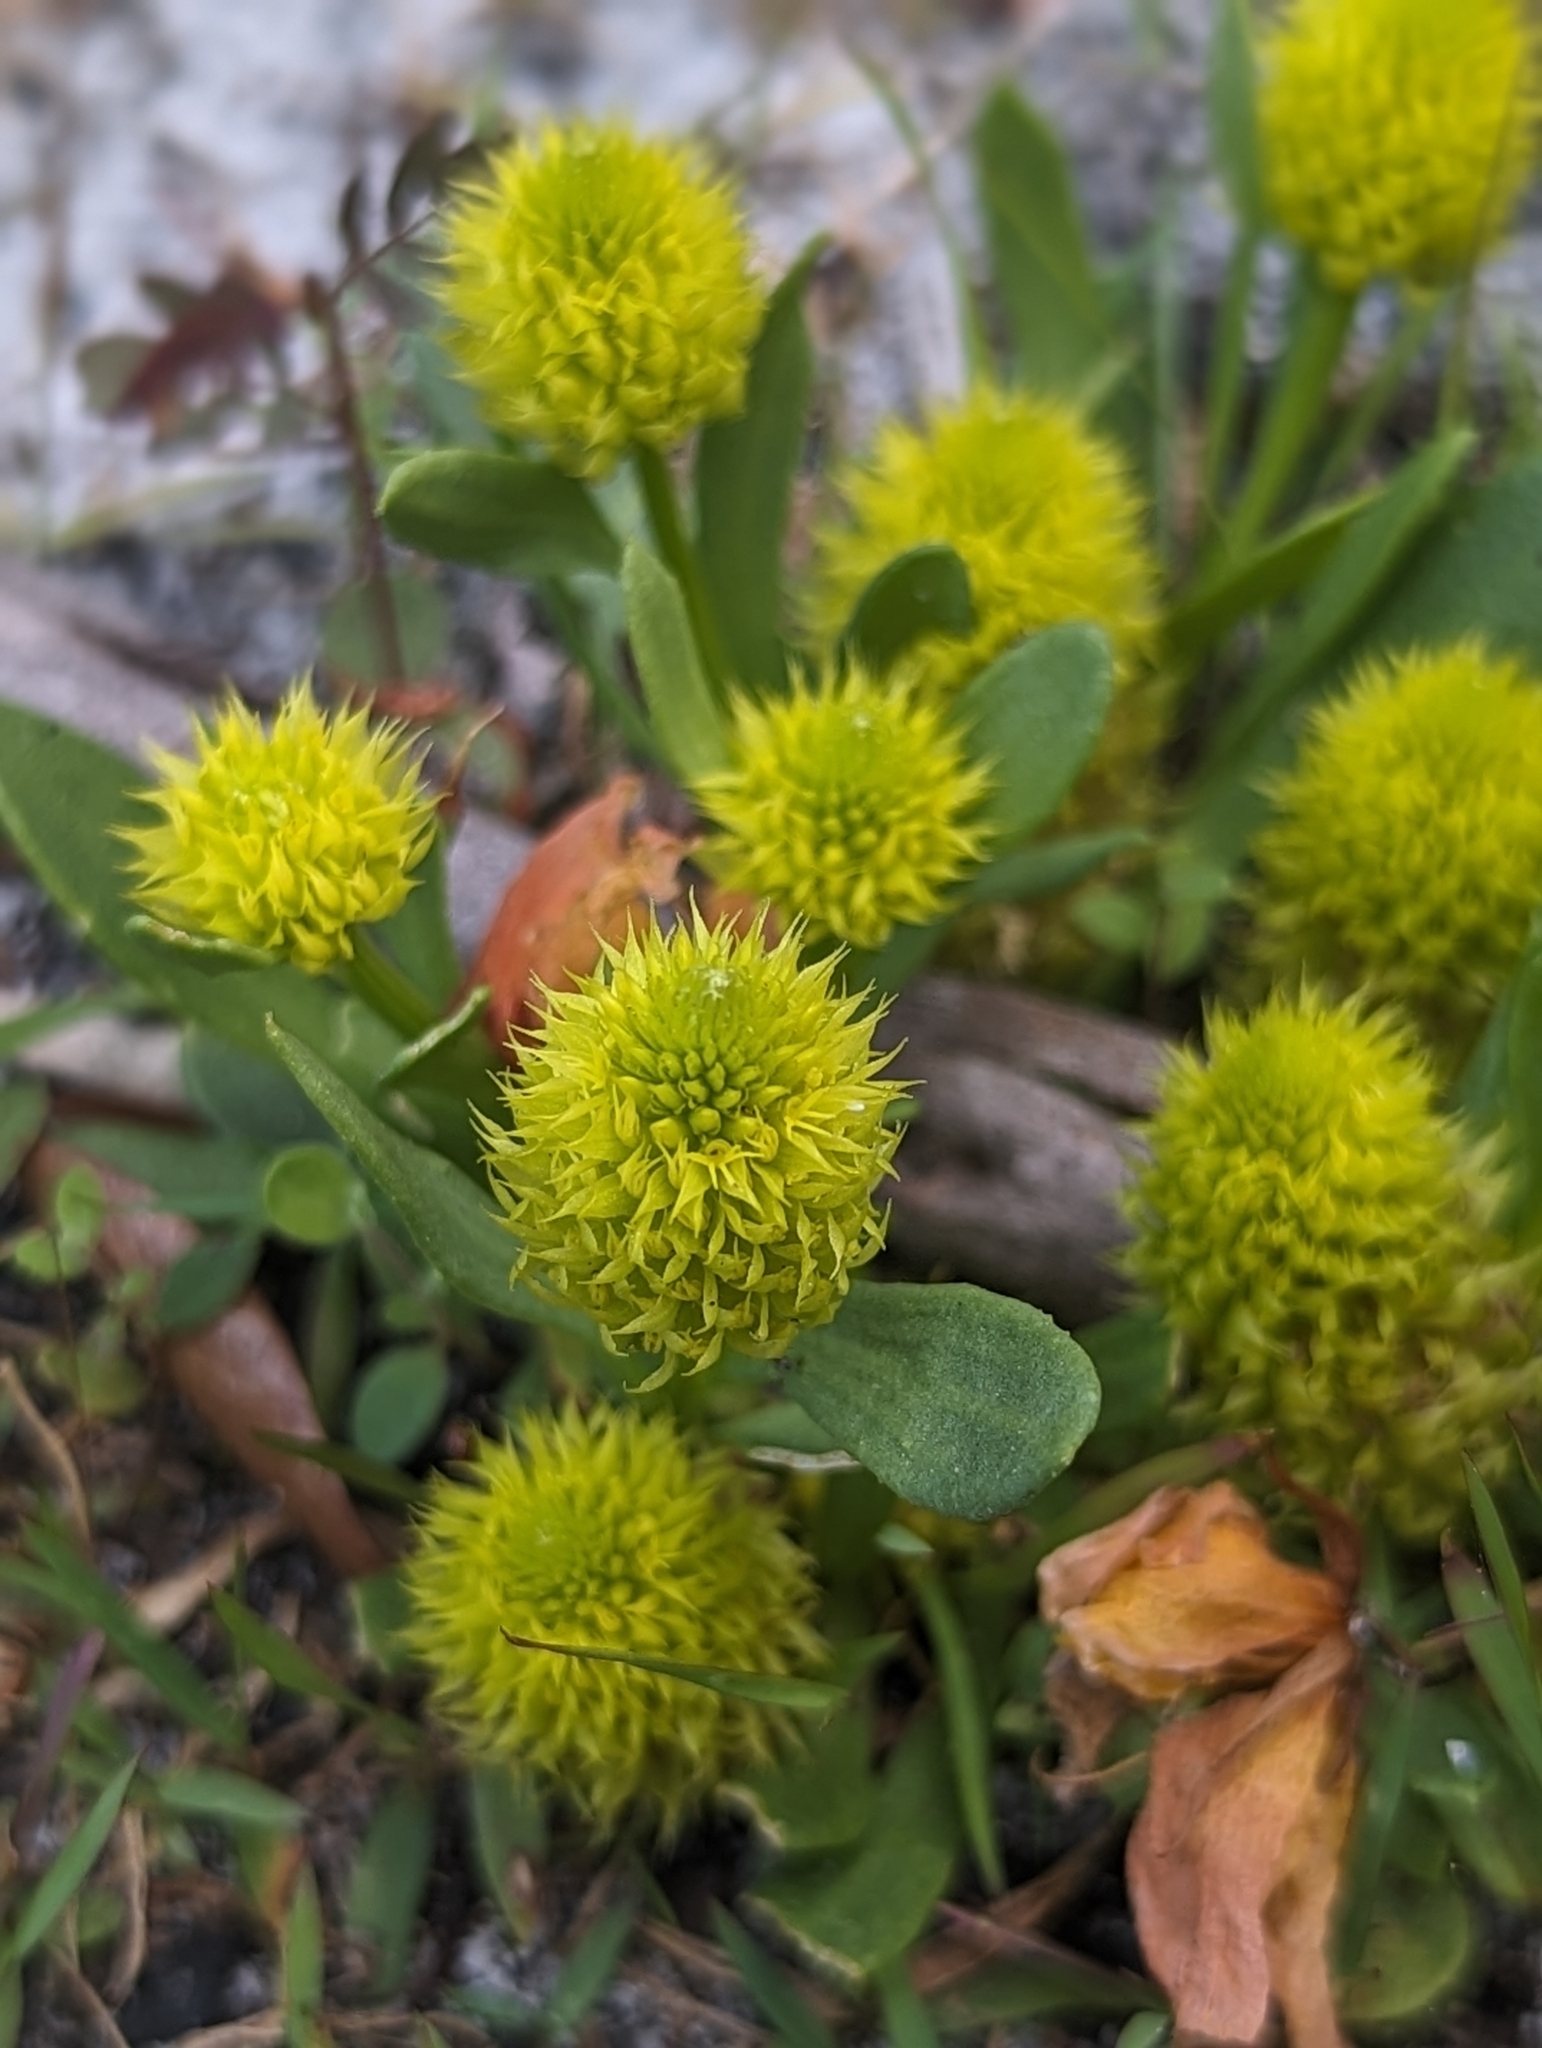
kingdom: Plantae
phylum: Tracheophyta
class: Magnoliopsida
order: Fabales
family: Polygalaceae
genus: Polygala
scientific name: Polygala nana
